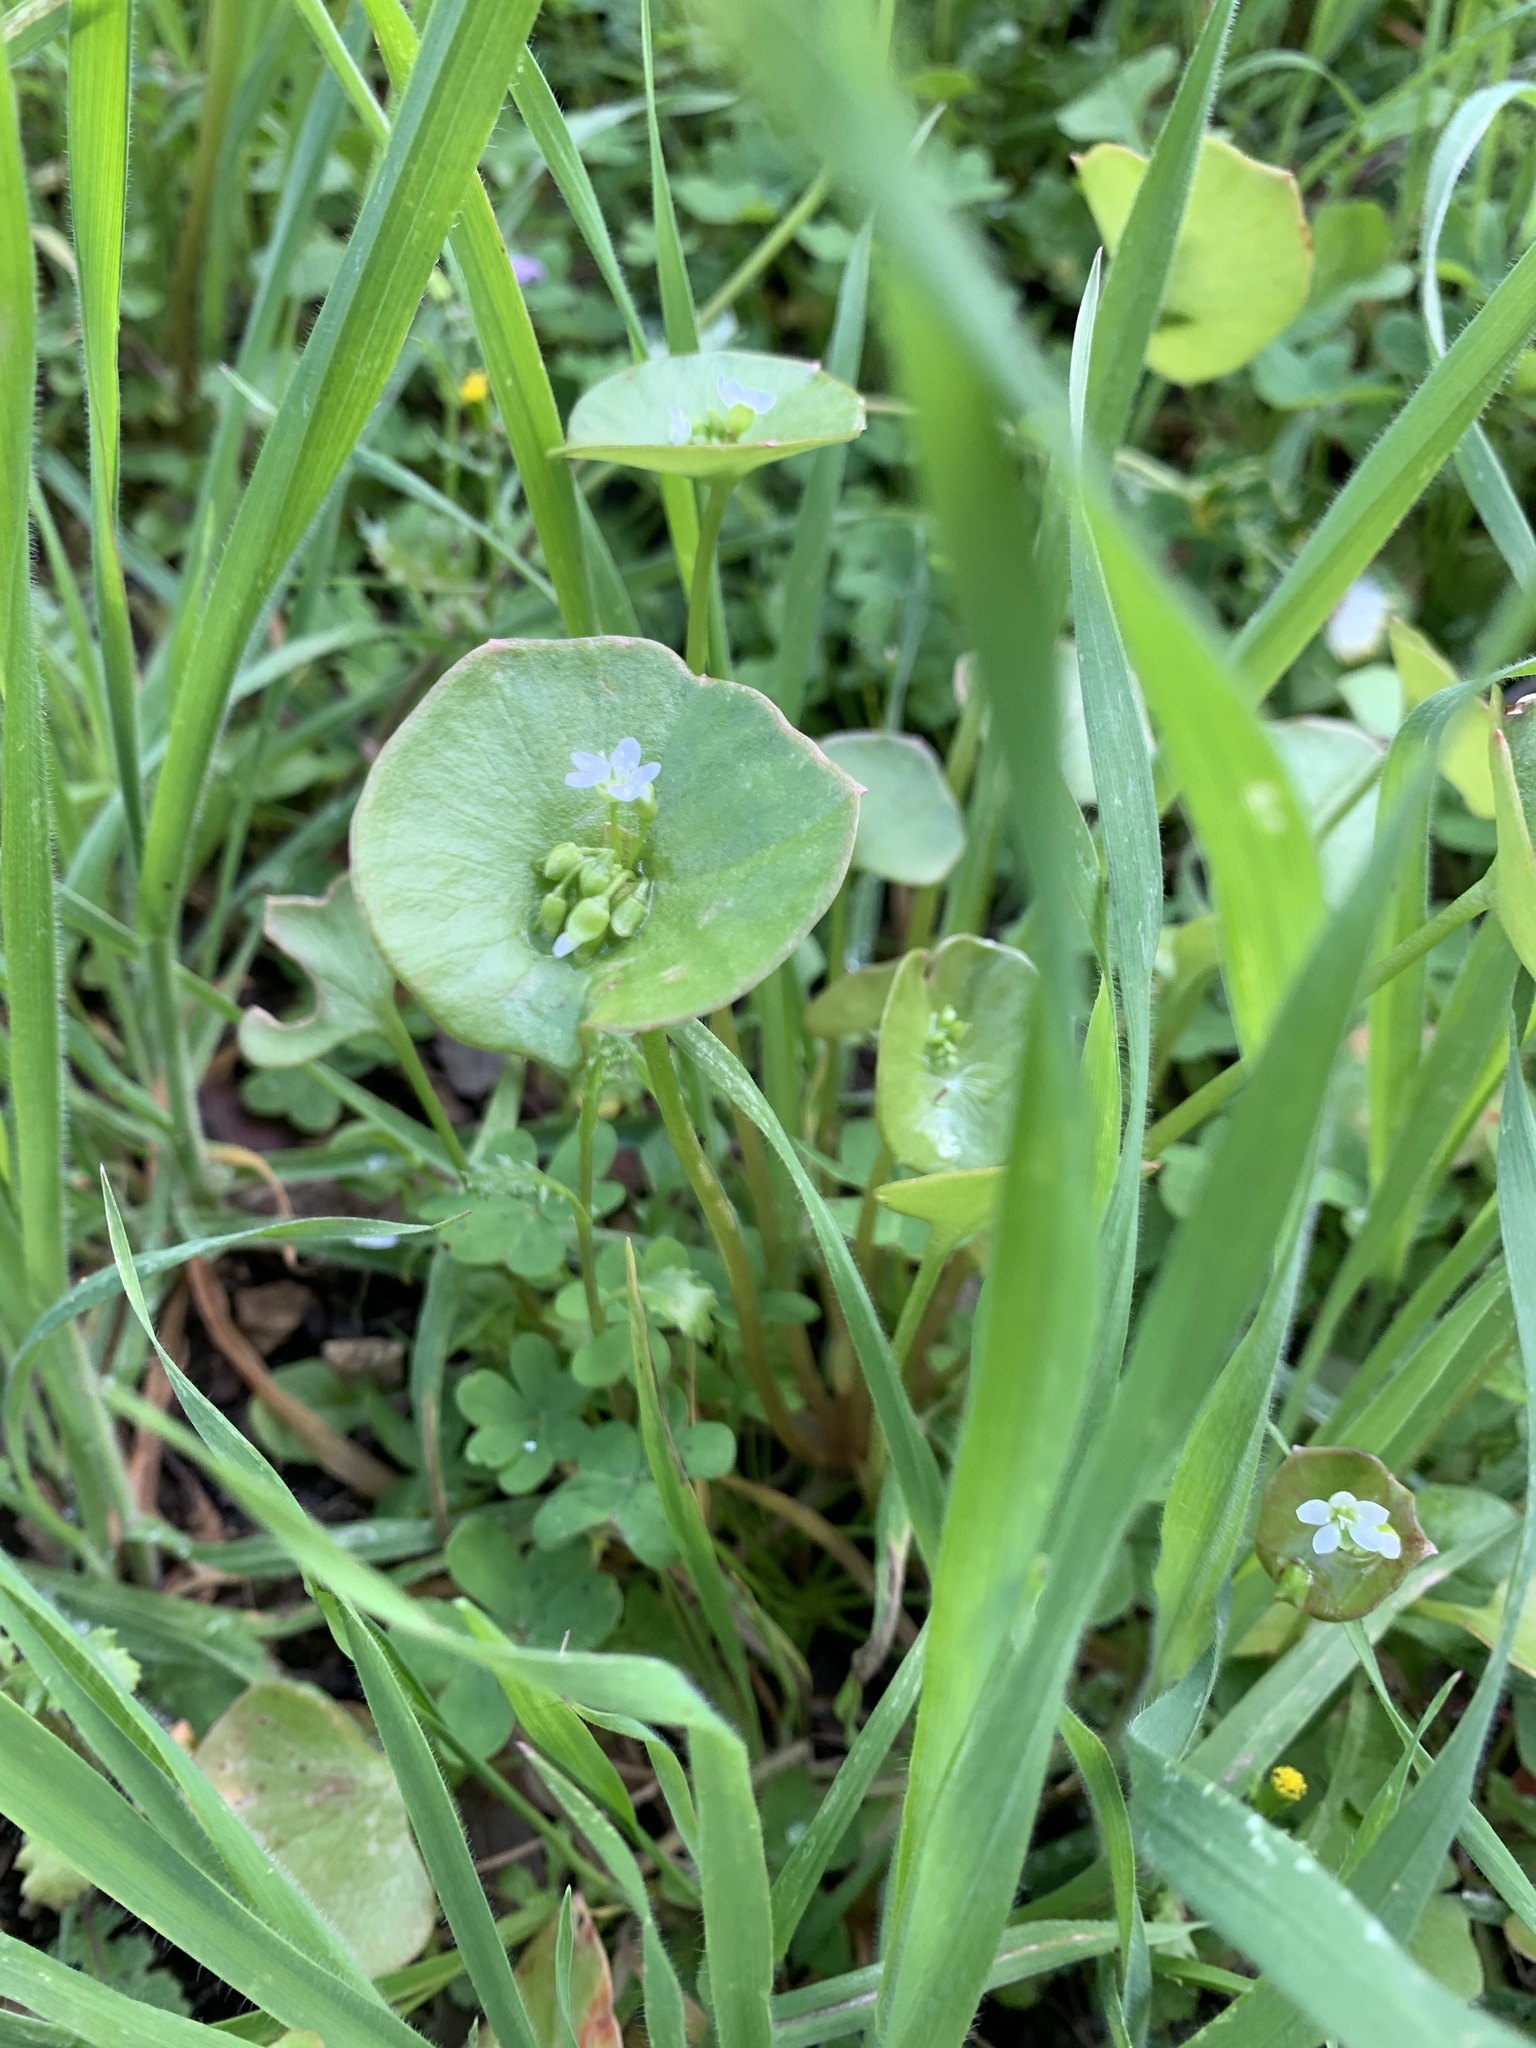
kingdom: Plantae
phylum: Tracheophyta
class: Magnoliopsida
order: Caryophyllales
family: Montiaceae
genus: Claytonia
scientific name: Claytonia perfoliata
